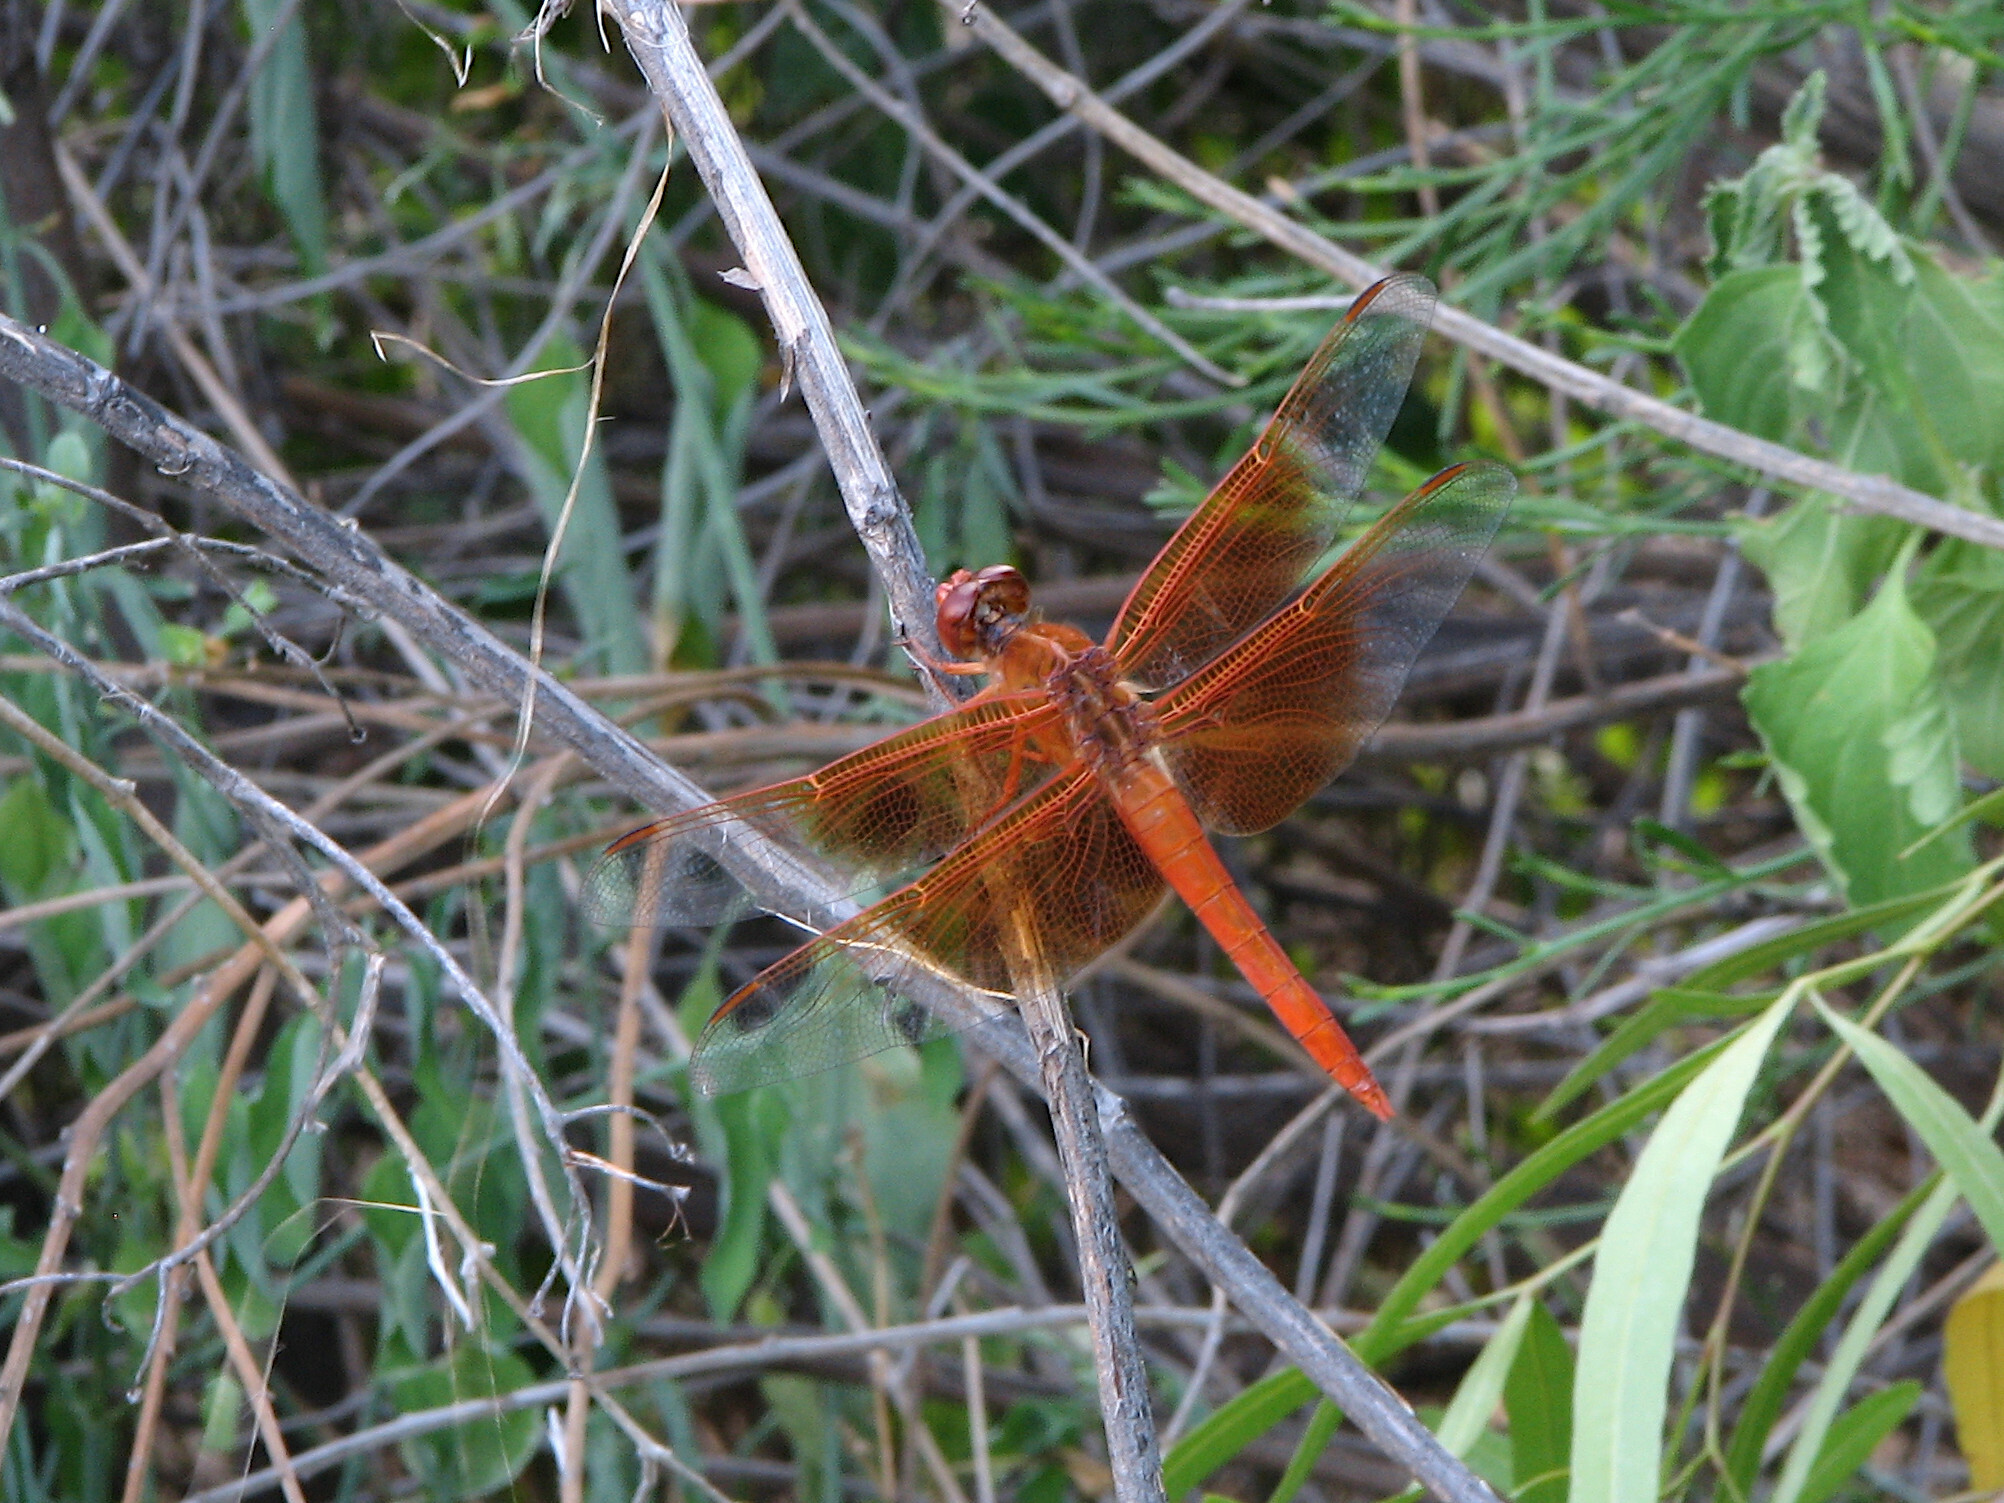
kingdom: Animalia
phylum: Arthropoda
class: Insecta
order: Odonata
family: Libellulidae
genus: Libellula
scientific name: Libellula saturata
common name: Flame skimmer
